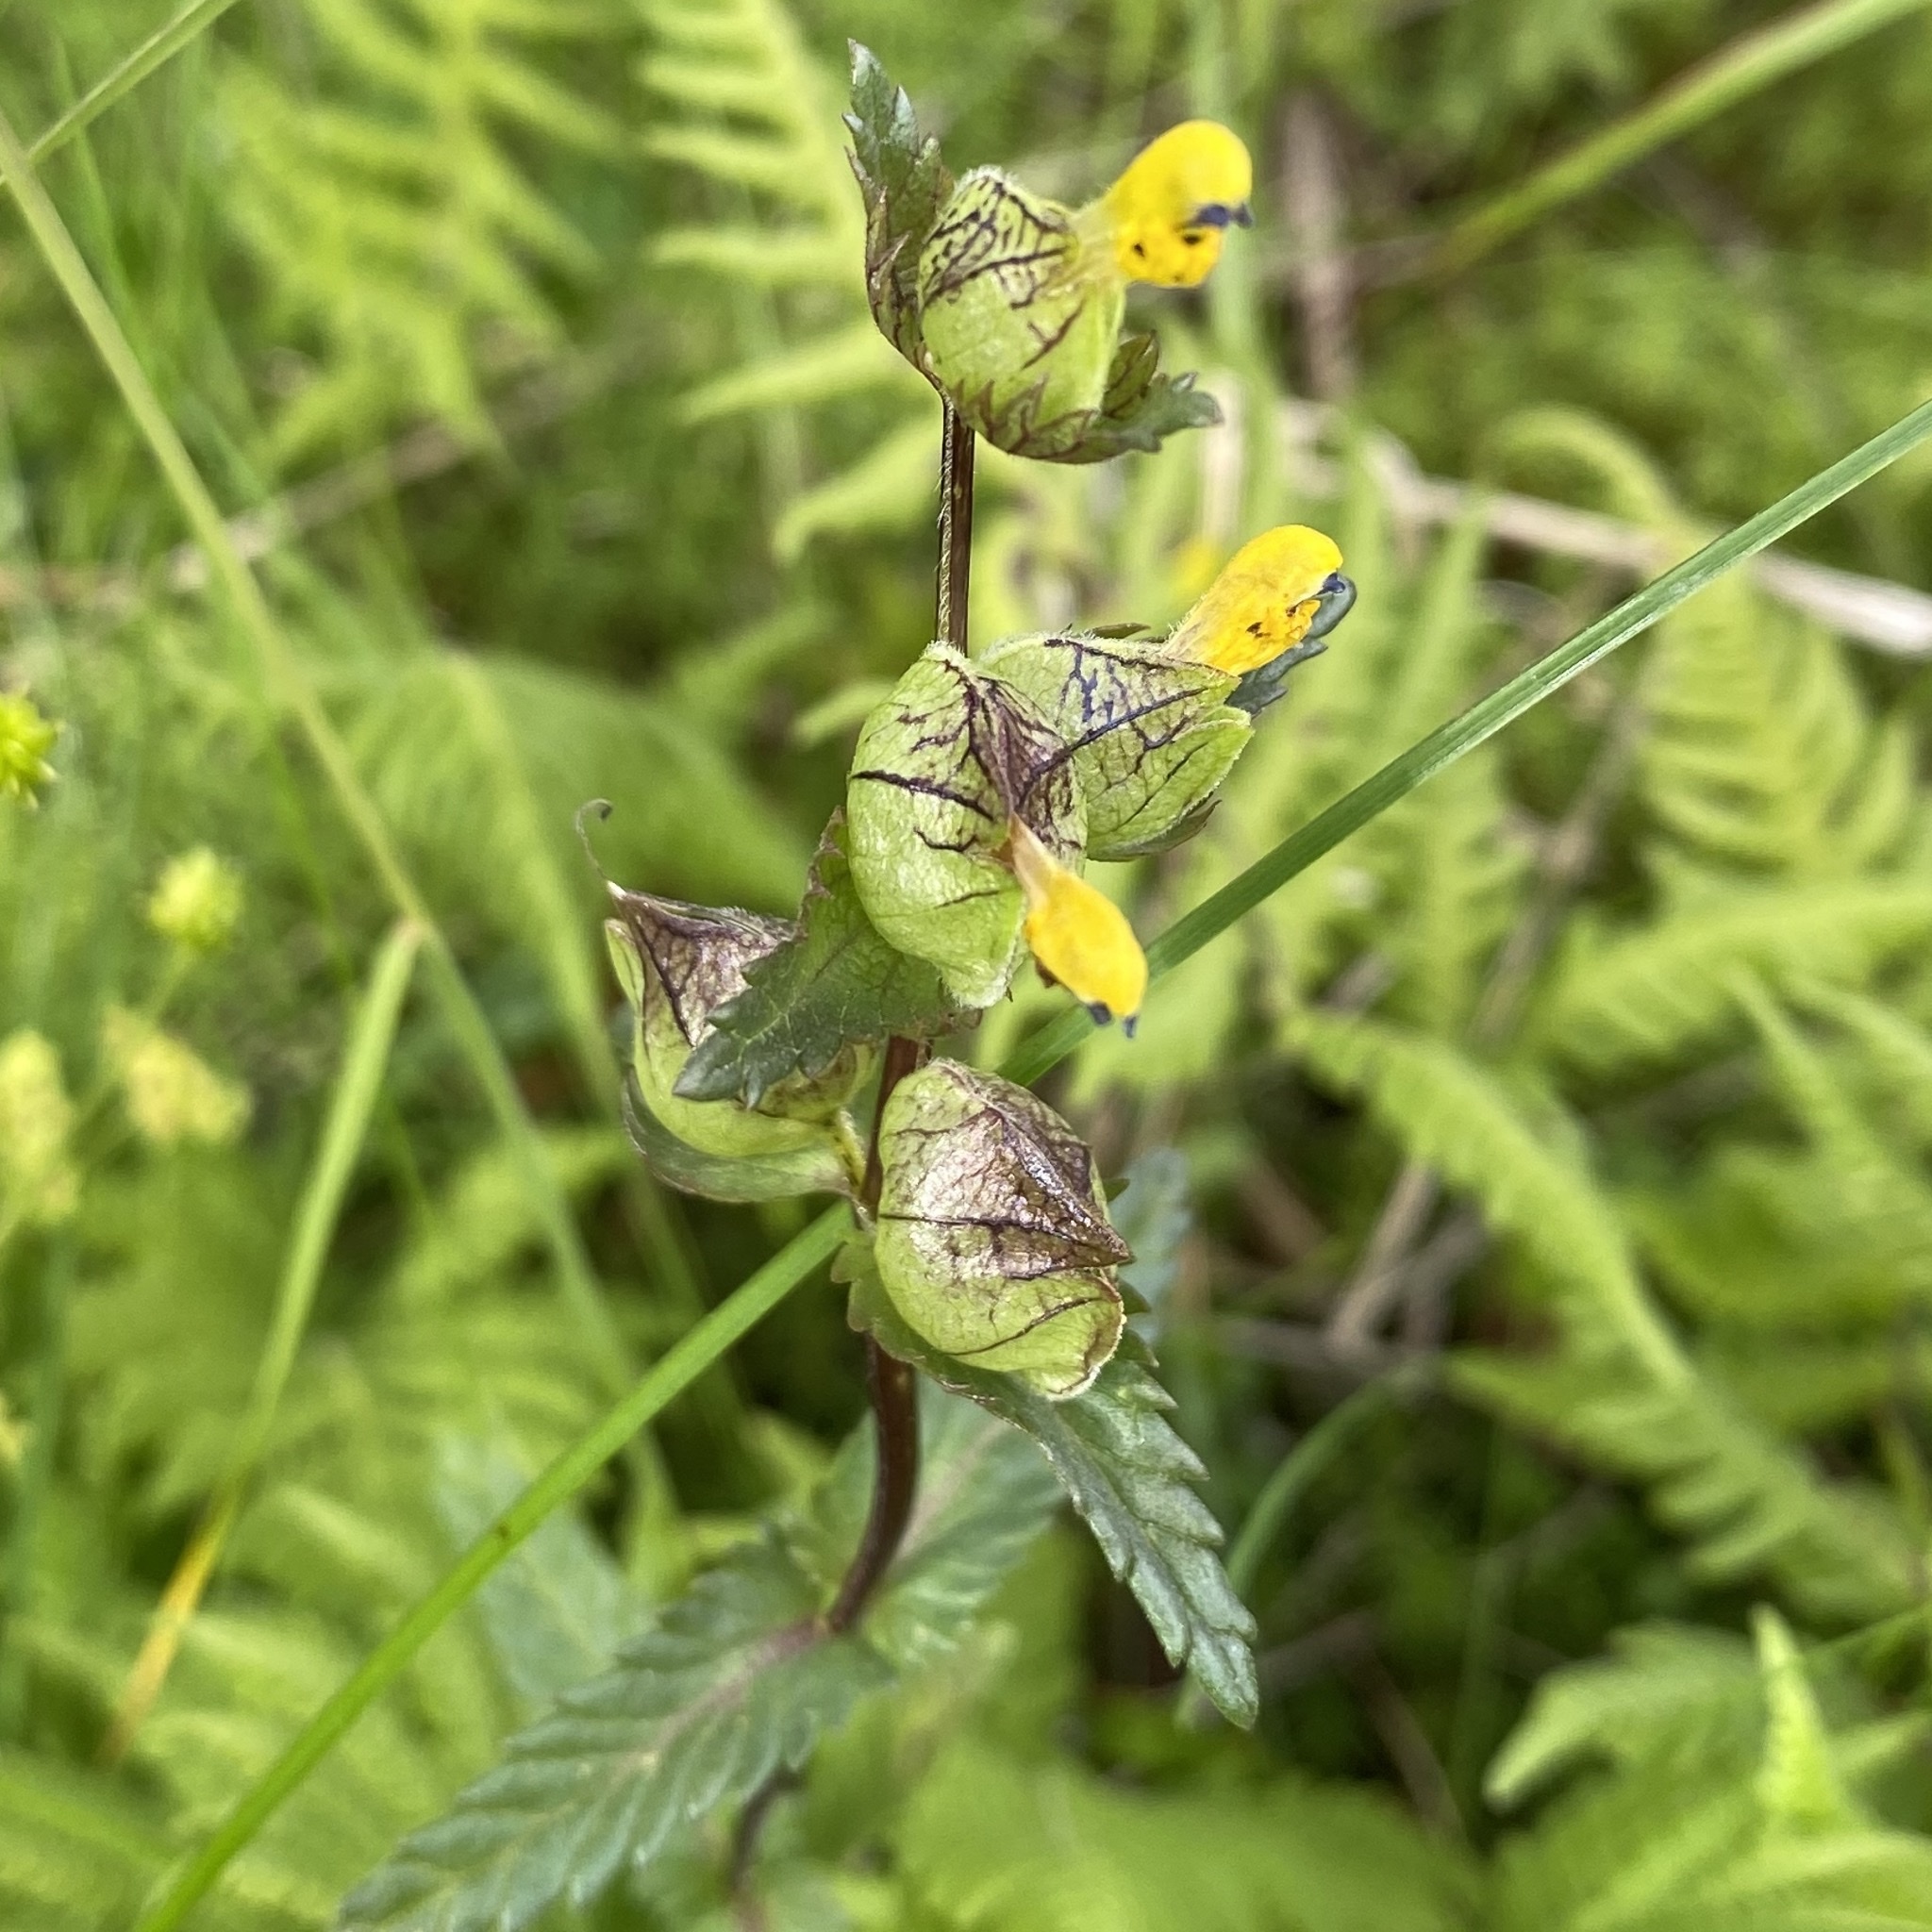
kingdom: Plantae
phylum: Tracheophyta
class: Magnoliopsida
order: Lamiales
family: Orobanchaceae
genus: Rhinanthus
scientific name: Rhinanthus minor
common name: Yellow-rattle
